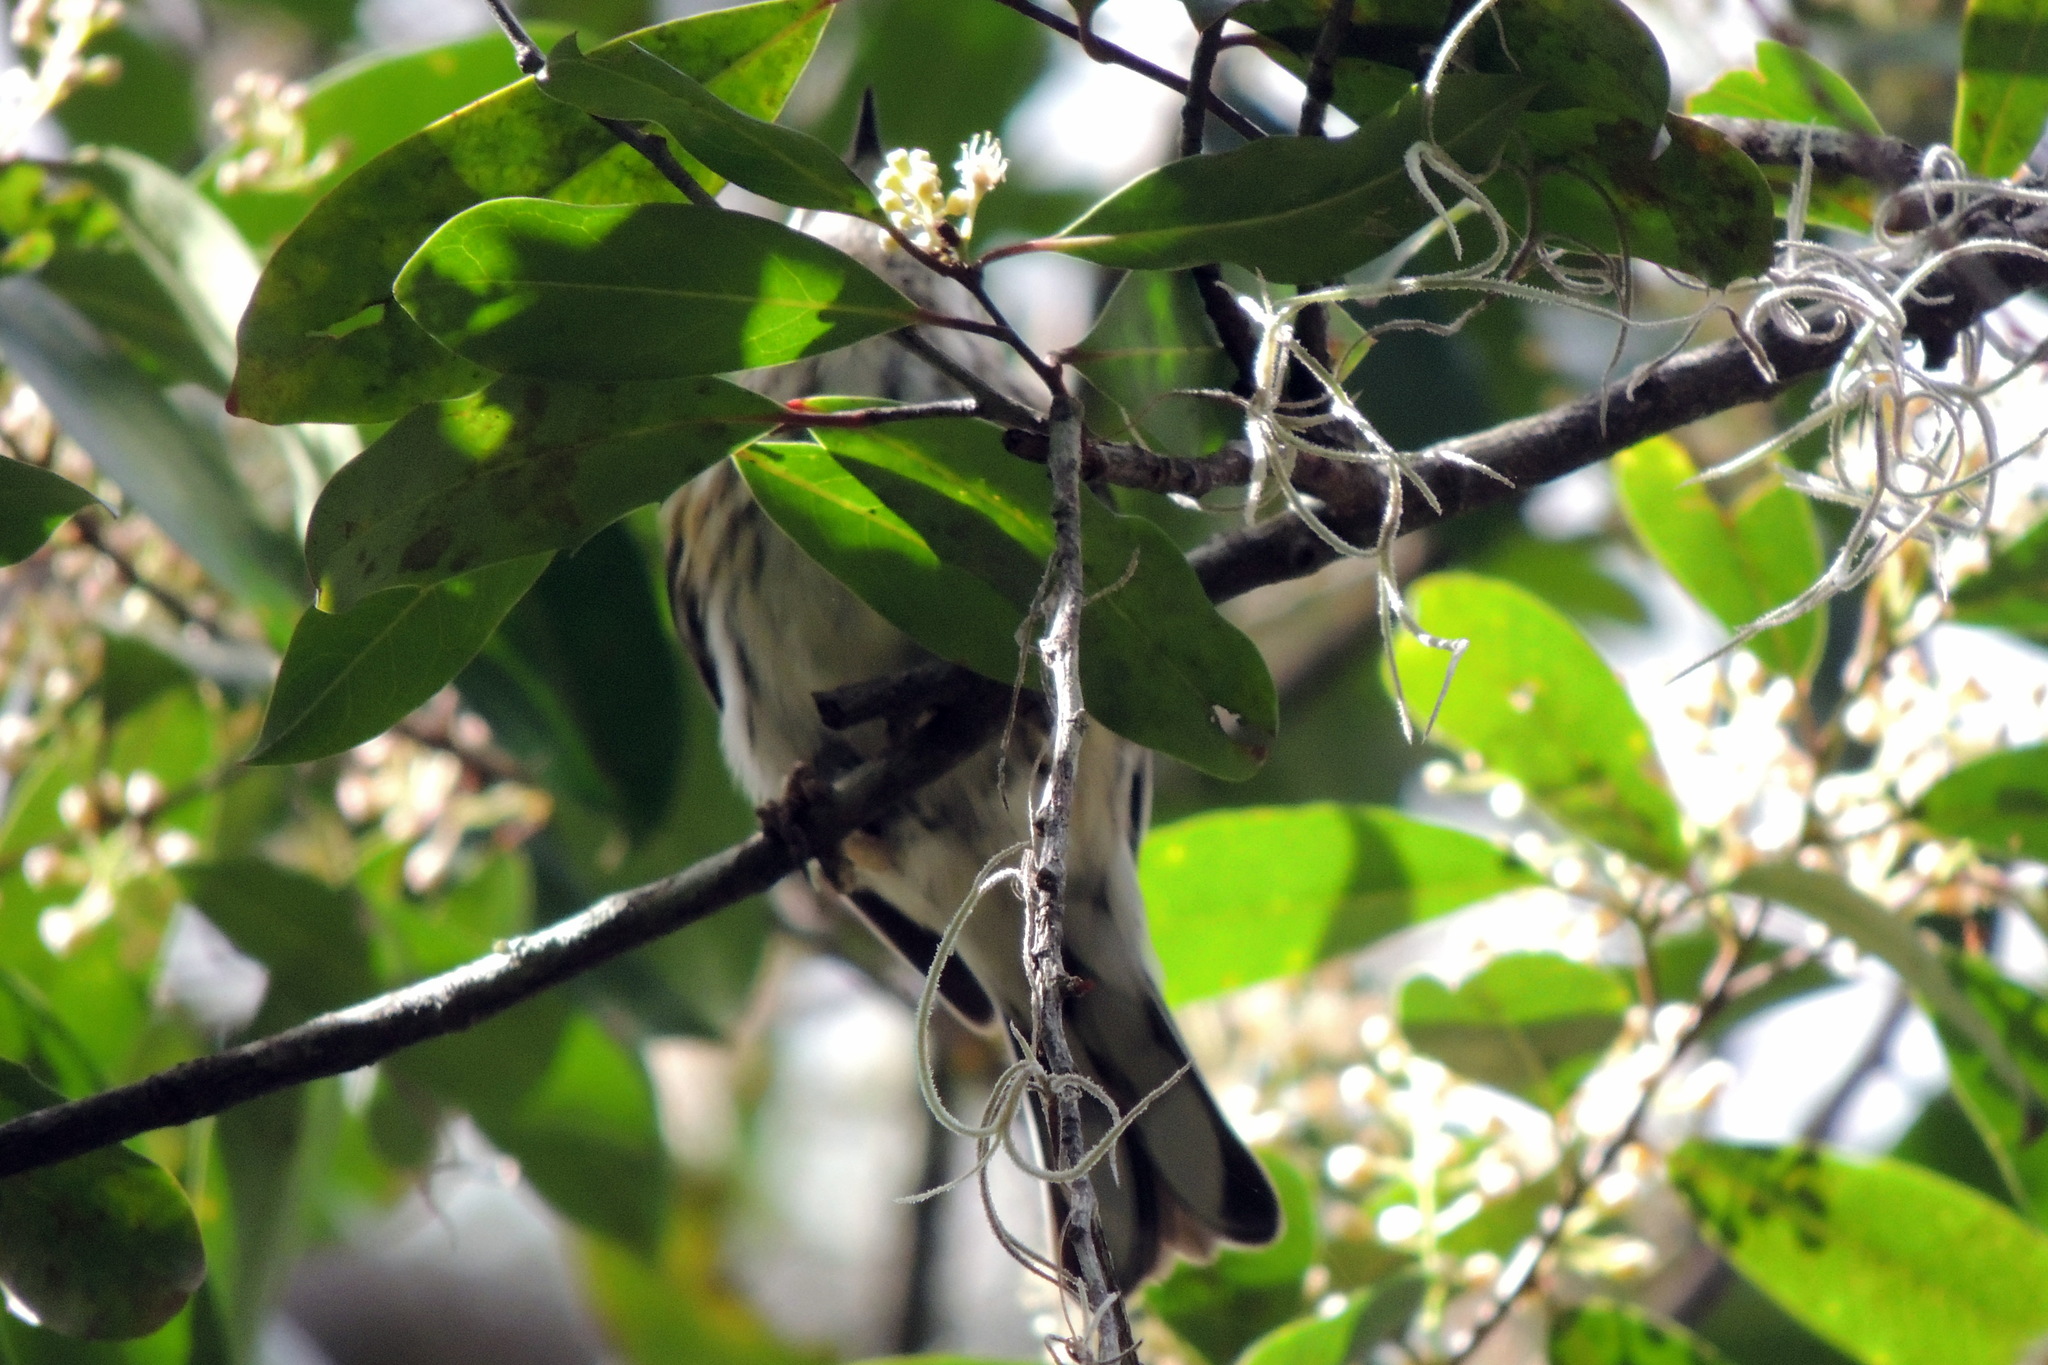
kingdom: Animalia
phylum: Chordata
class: Aves
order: Passeriformes
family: Parulidae
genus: Setophaga
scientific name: Setophaga coronata
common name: Myrtle warbler
